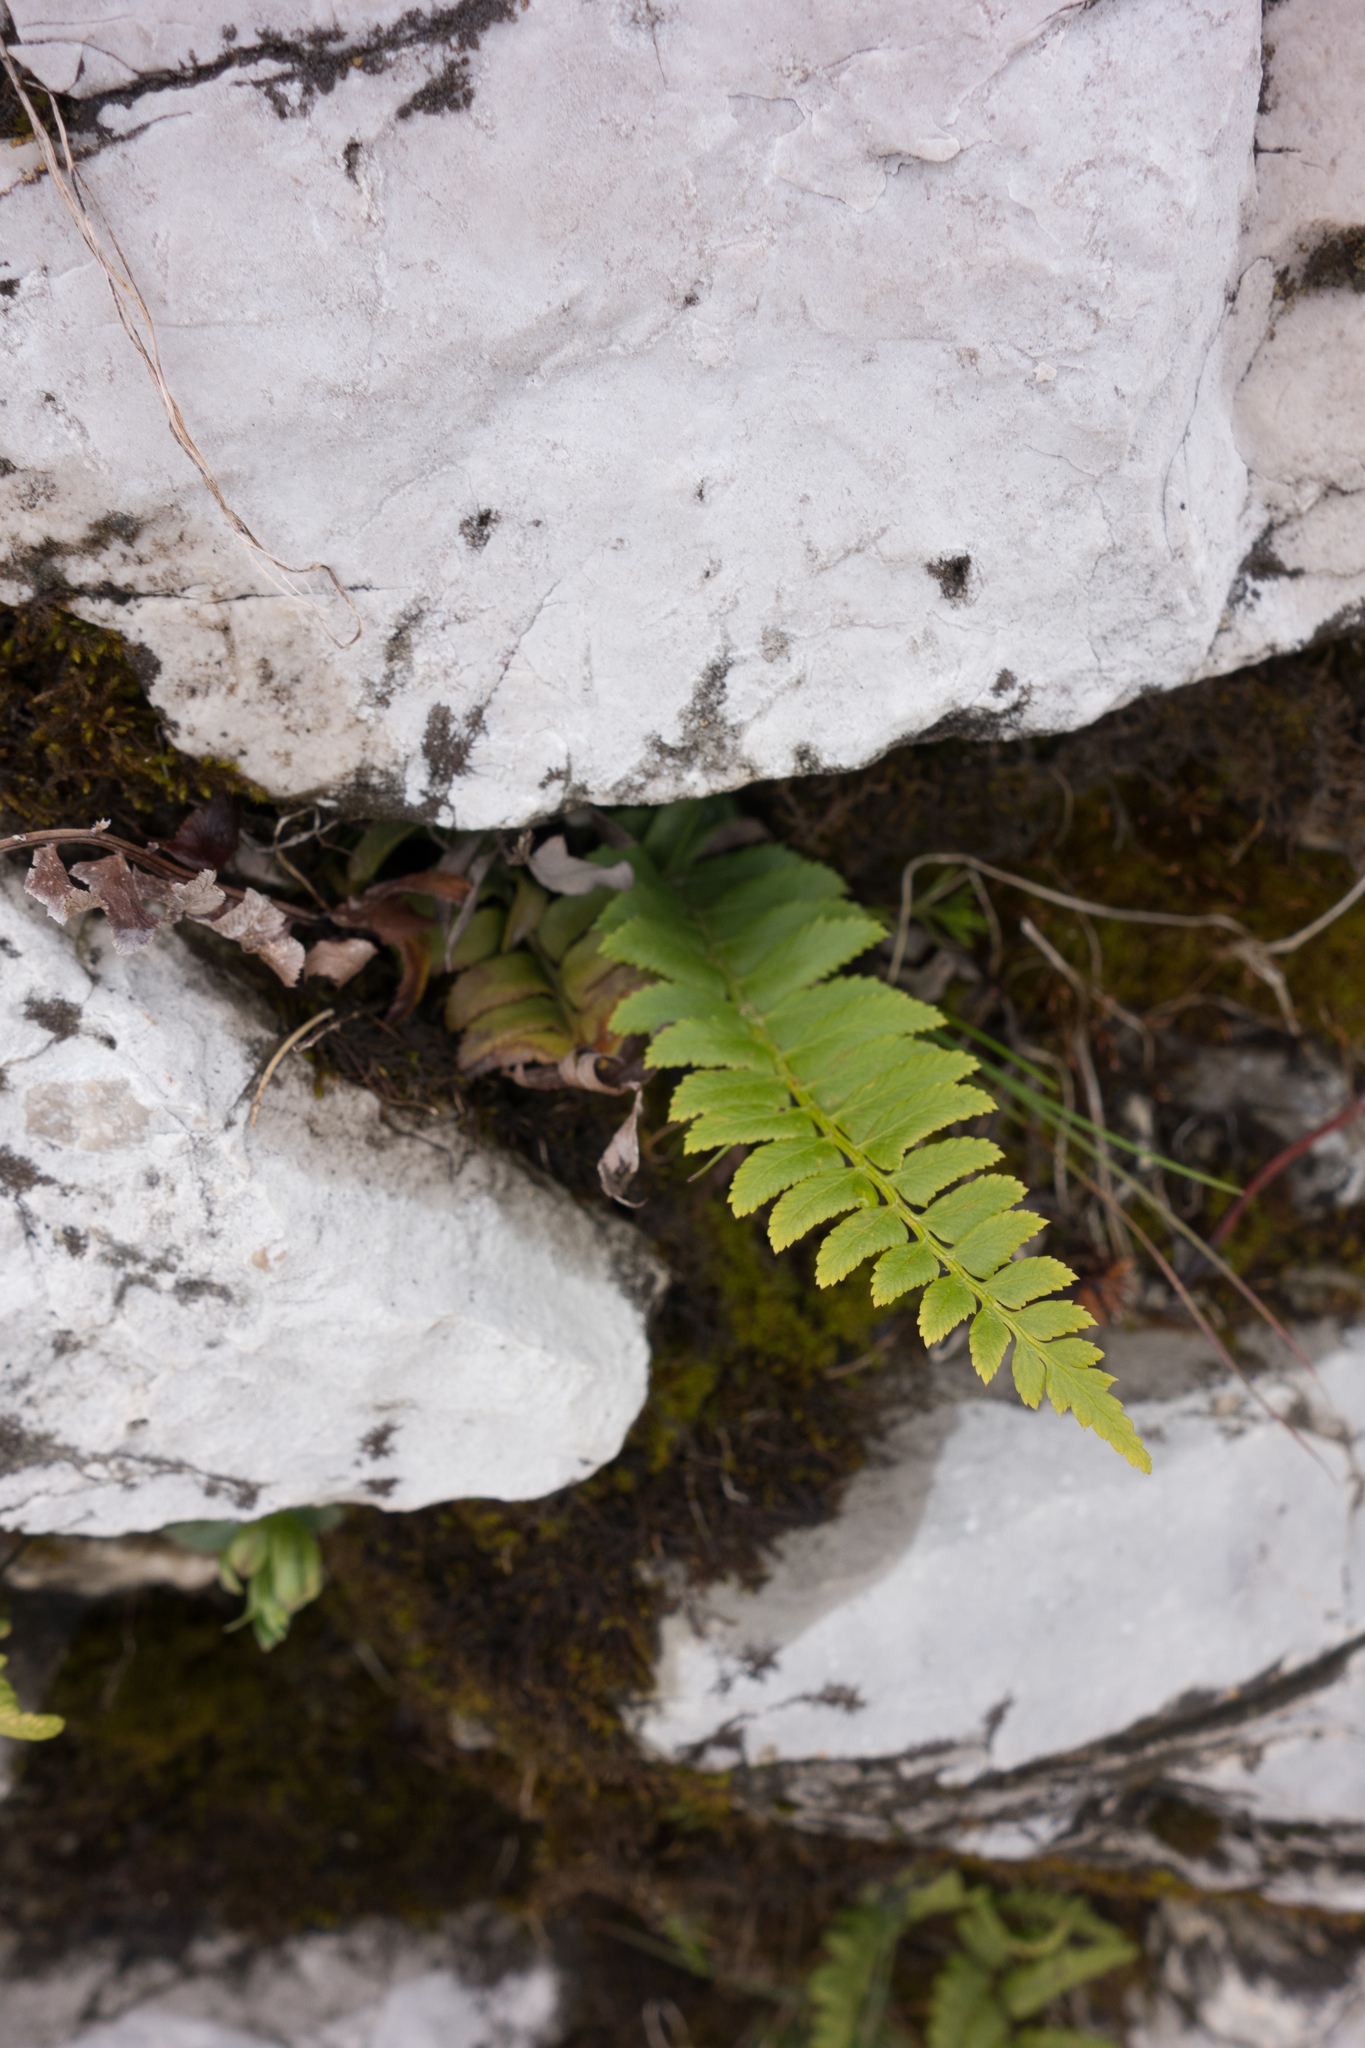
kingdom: Plantae
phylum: Tracheophyta
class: Polypodiopsida
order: Polypodiales
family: Dryopteridaceae
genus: Polystichum
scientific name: Polystichum lonchitis
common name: Holly fern
